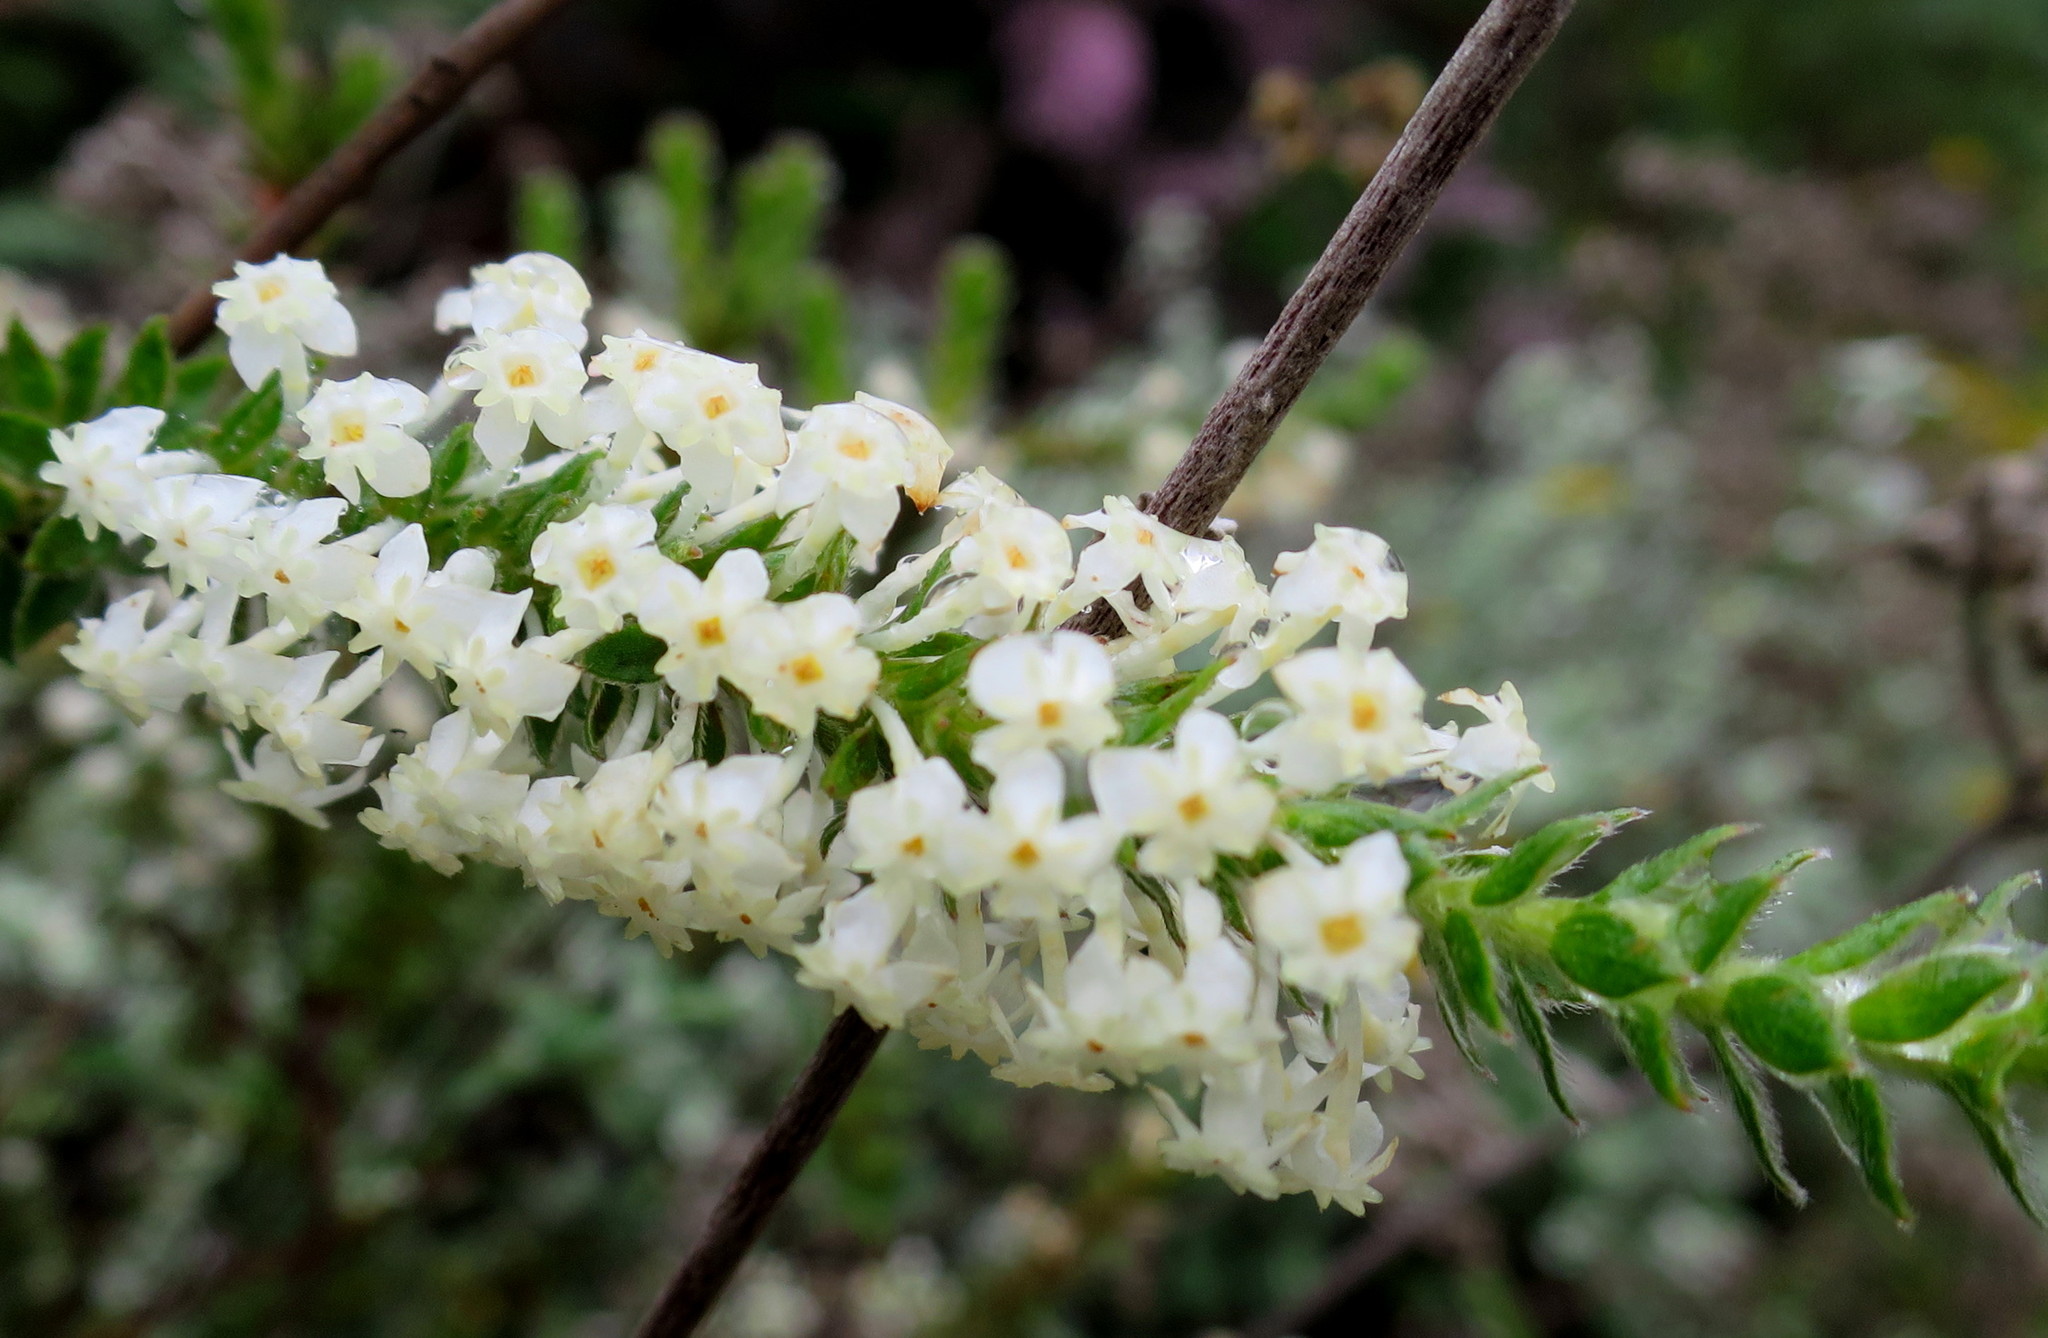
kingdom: Plantae
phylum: Tracheophyta
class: Magnoliopsida
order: Malvales
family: Thymelaeaceae
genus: Struthiola
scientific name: Struthiola hirsuta
